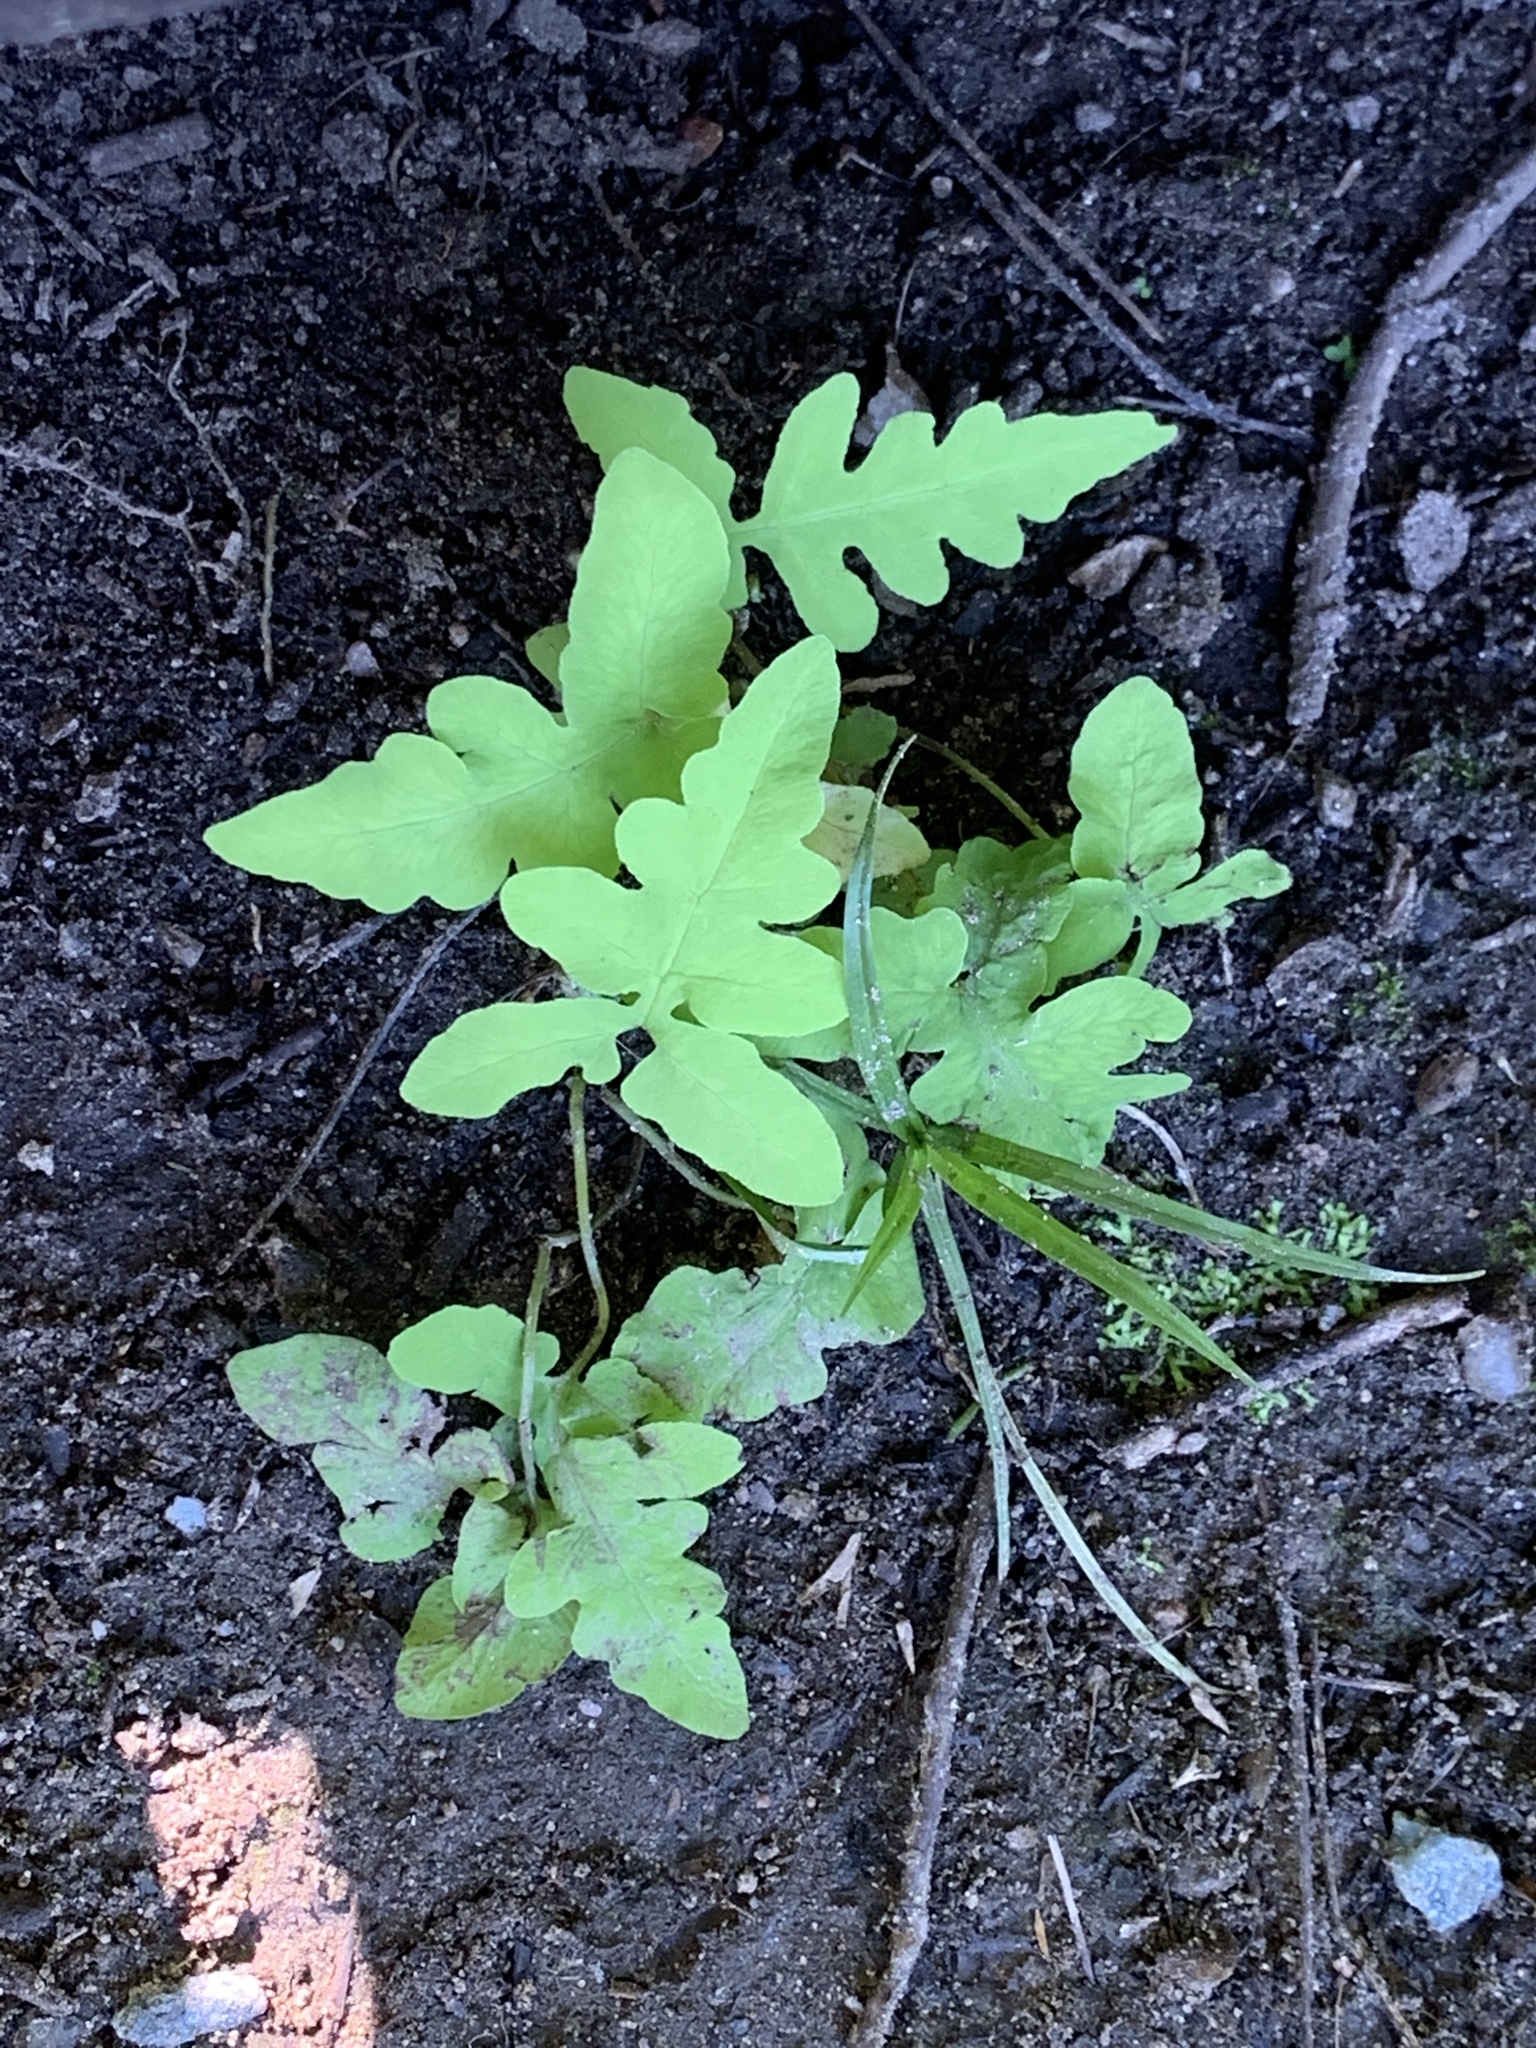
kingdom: Plantae
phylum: Tracheophyta
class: Polypodiopsida
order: Polypodiales
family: Onocleaceae
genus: Onoclea
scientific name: Onoclea sensibilis
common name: Sensitive fern
